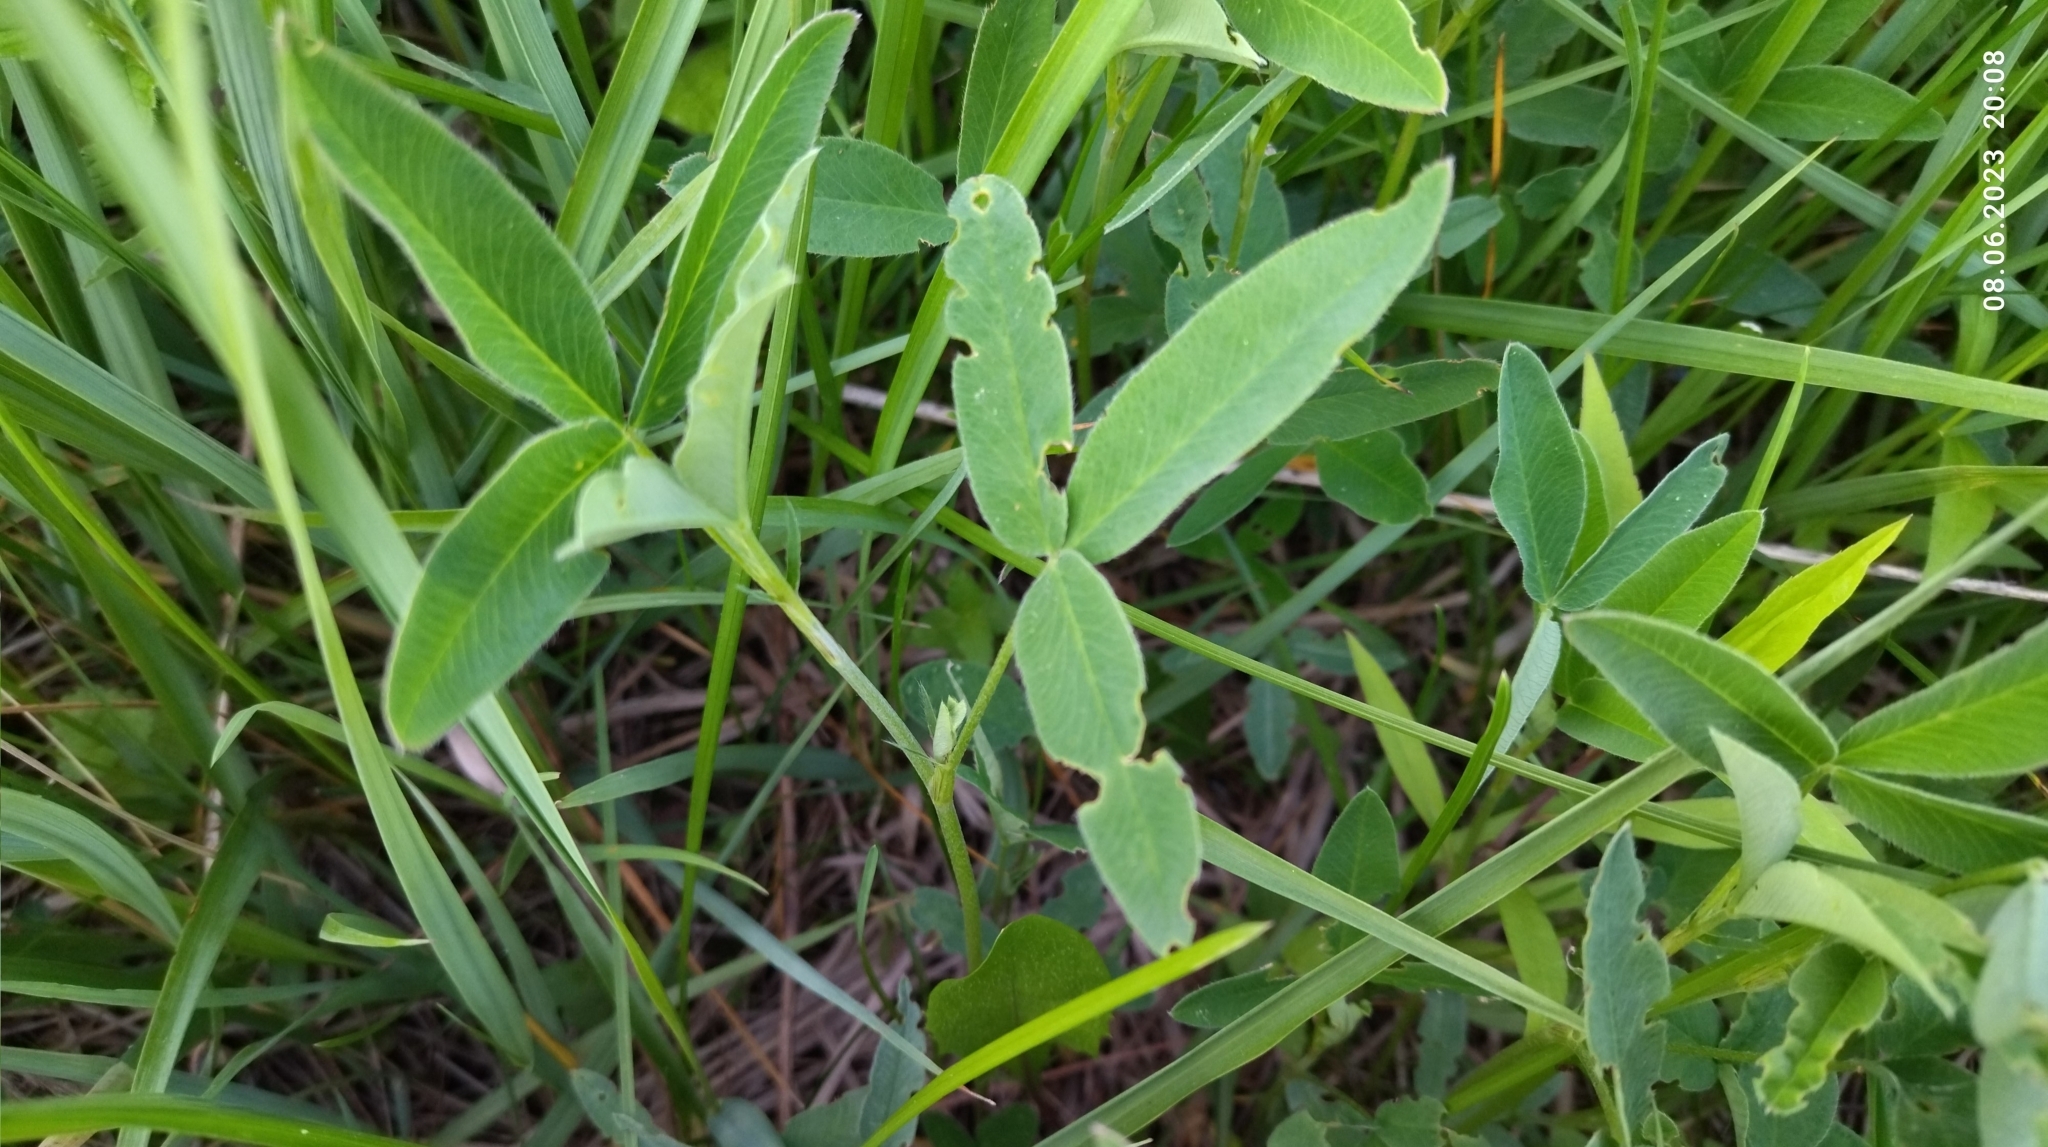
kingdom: Plantae
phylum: Tracheophyta
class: Magnoliopsida
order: Fabales
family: Fabaceae
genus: Trifolium
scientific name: Trifolium medium
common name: Zigzag clover
